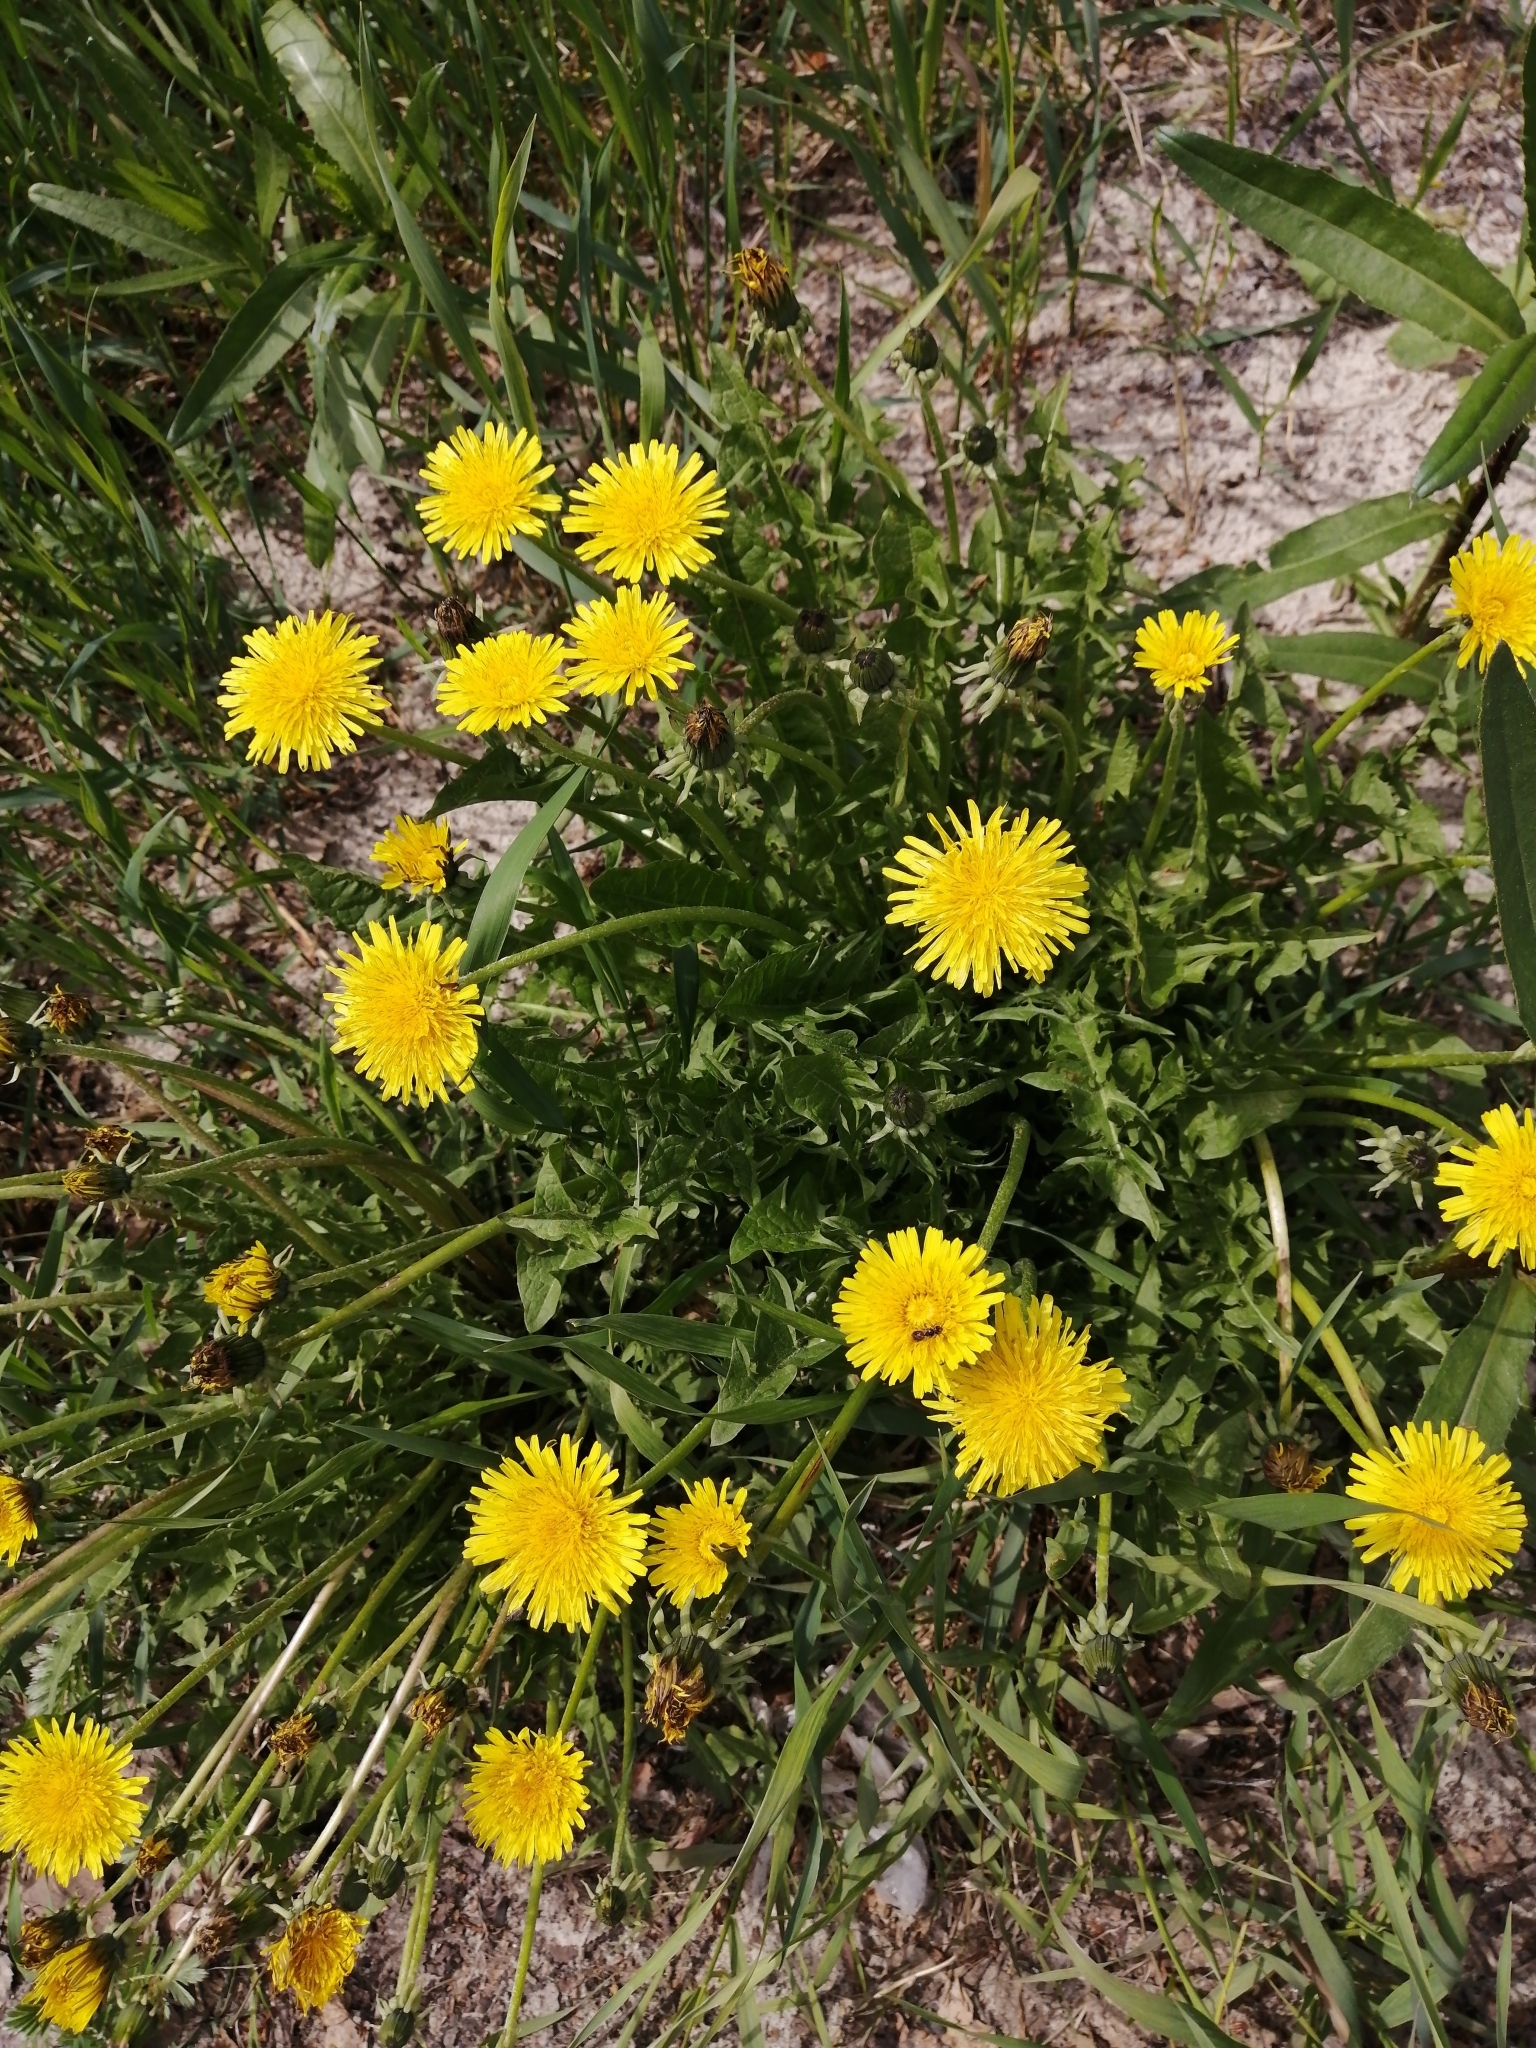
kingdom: Plantae
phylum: Tracheophyta
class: Magnoliopsida
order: Asterales
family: Asteraceae
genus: Taraxacum
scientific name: Taraxacum officinale
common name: Common dandelion
